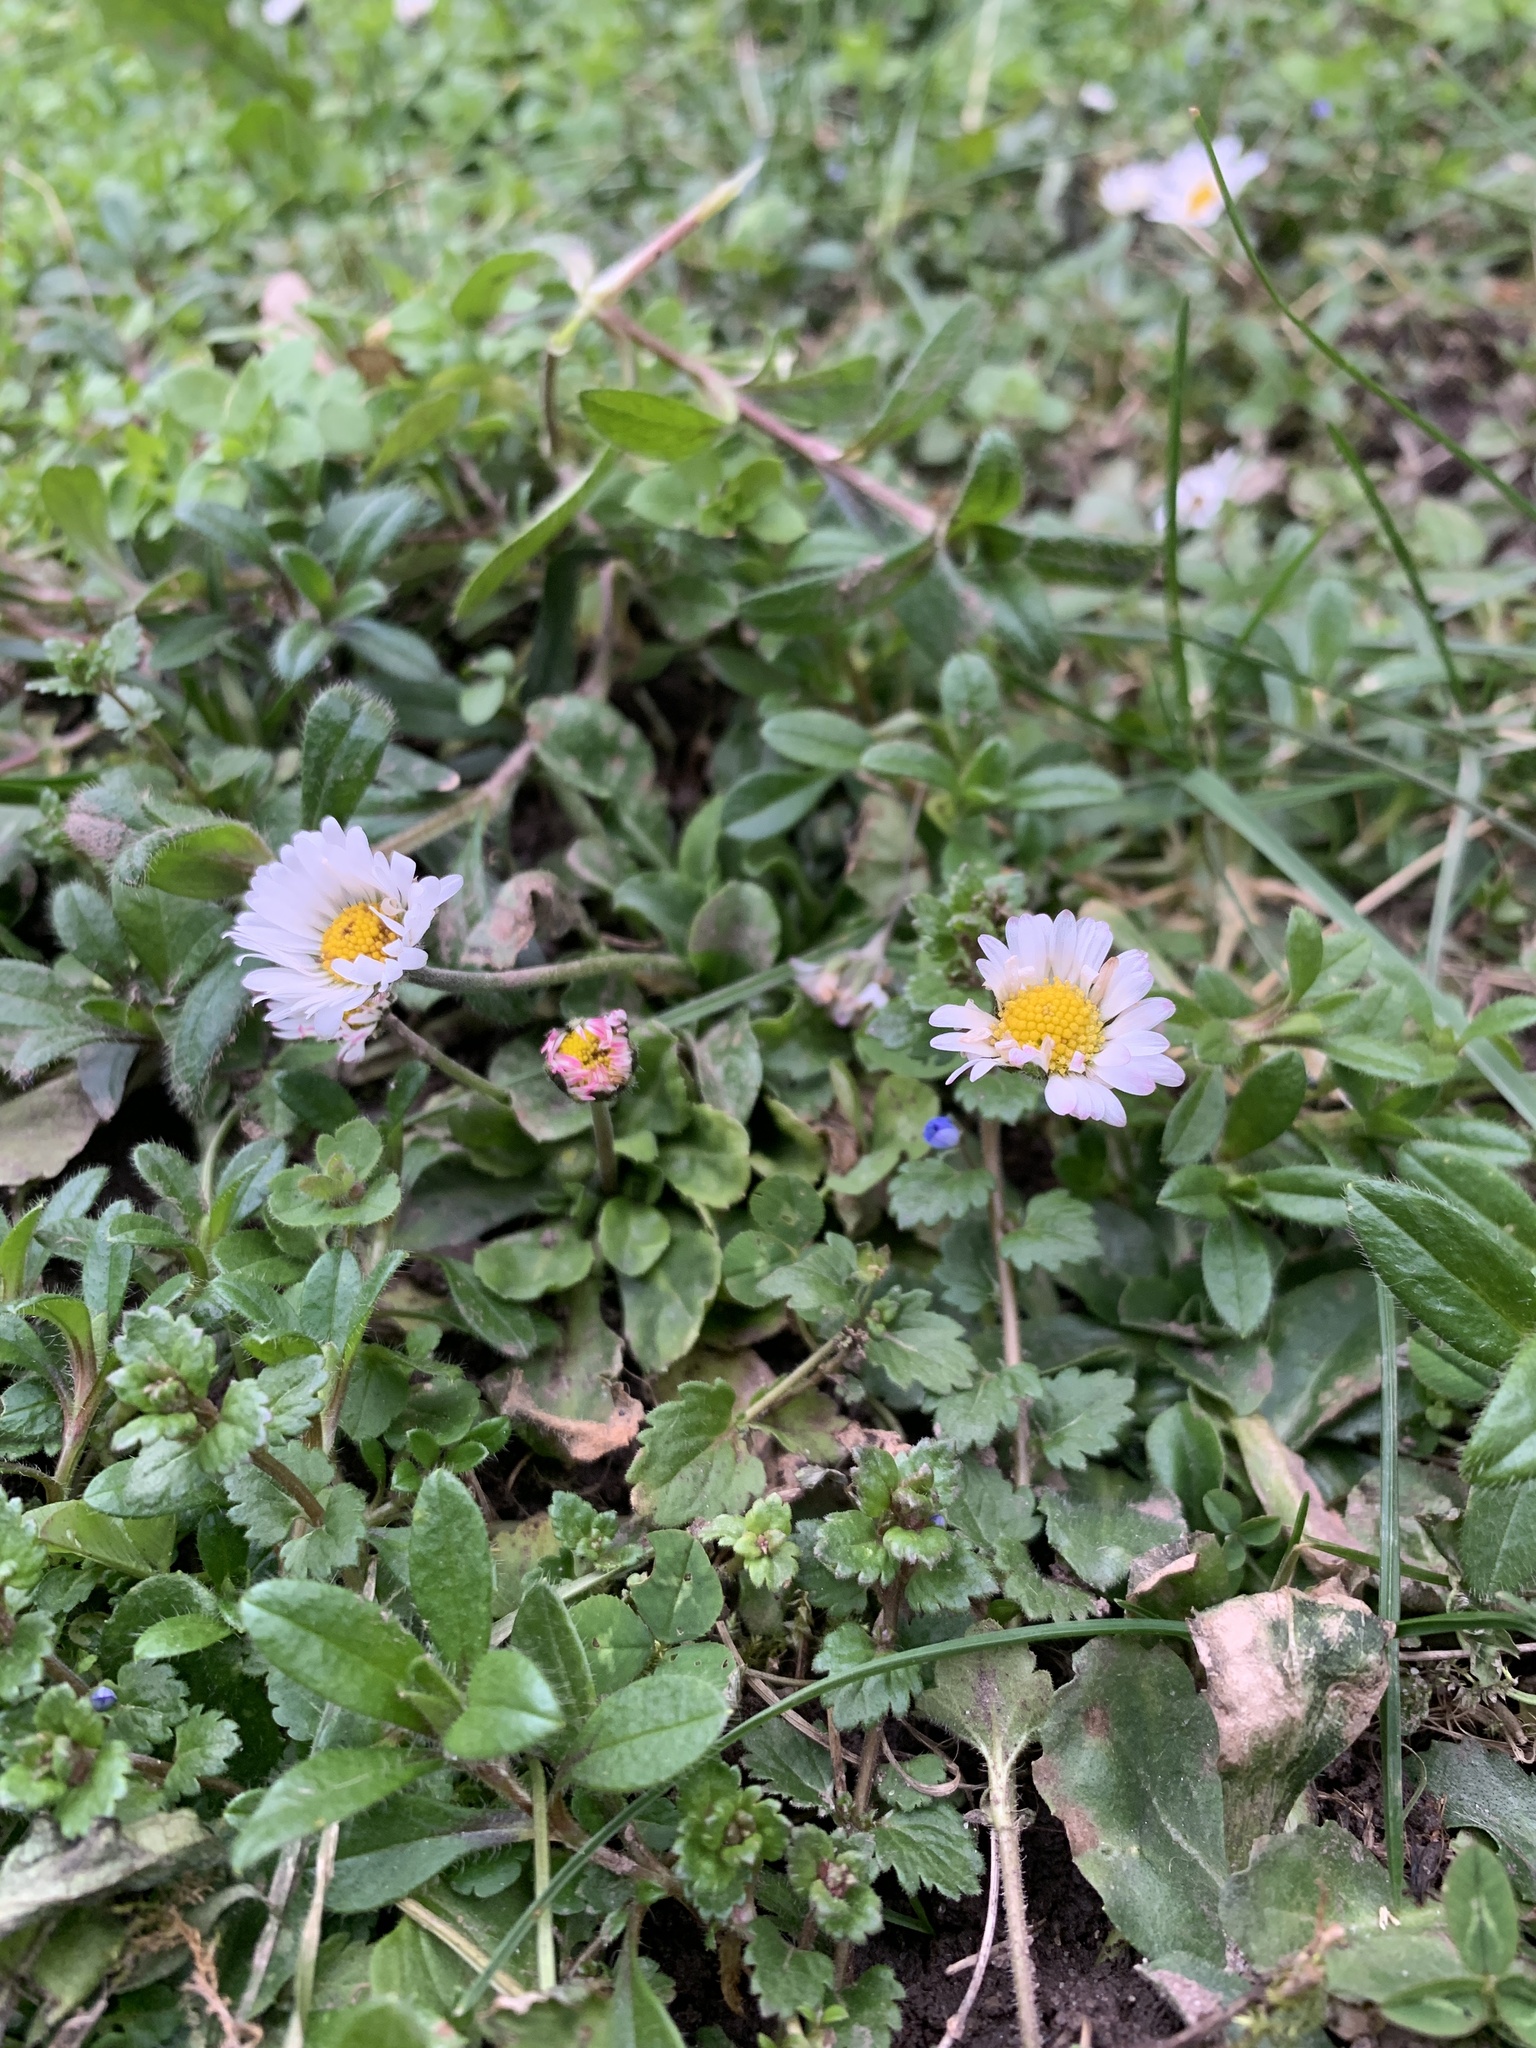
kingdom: Plantae
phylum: Tracheophyta
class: Magnoliopsida
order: Asterales
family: Asteraceae
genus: Bellis
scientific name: Bellis perennis
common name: Lawndaisy
